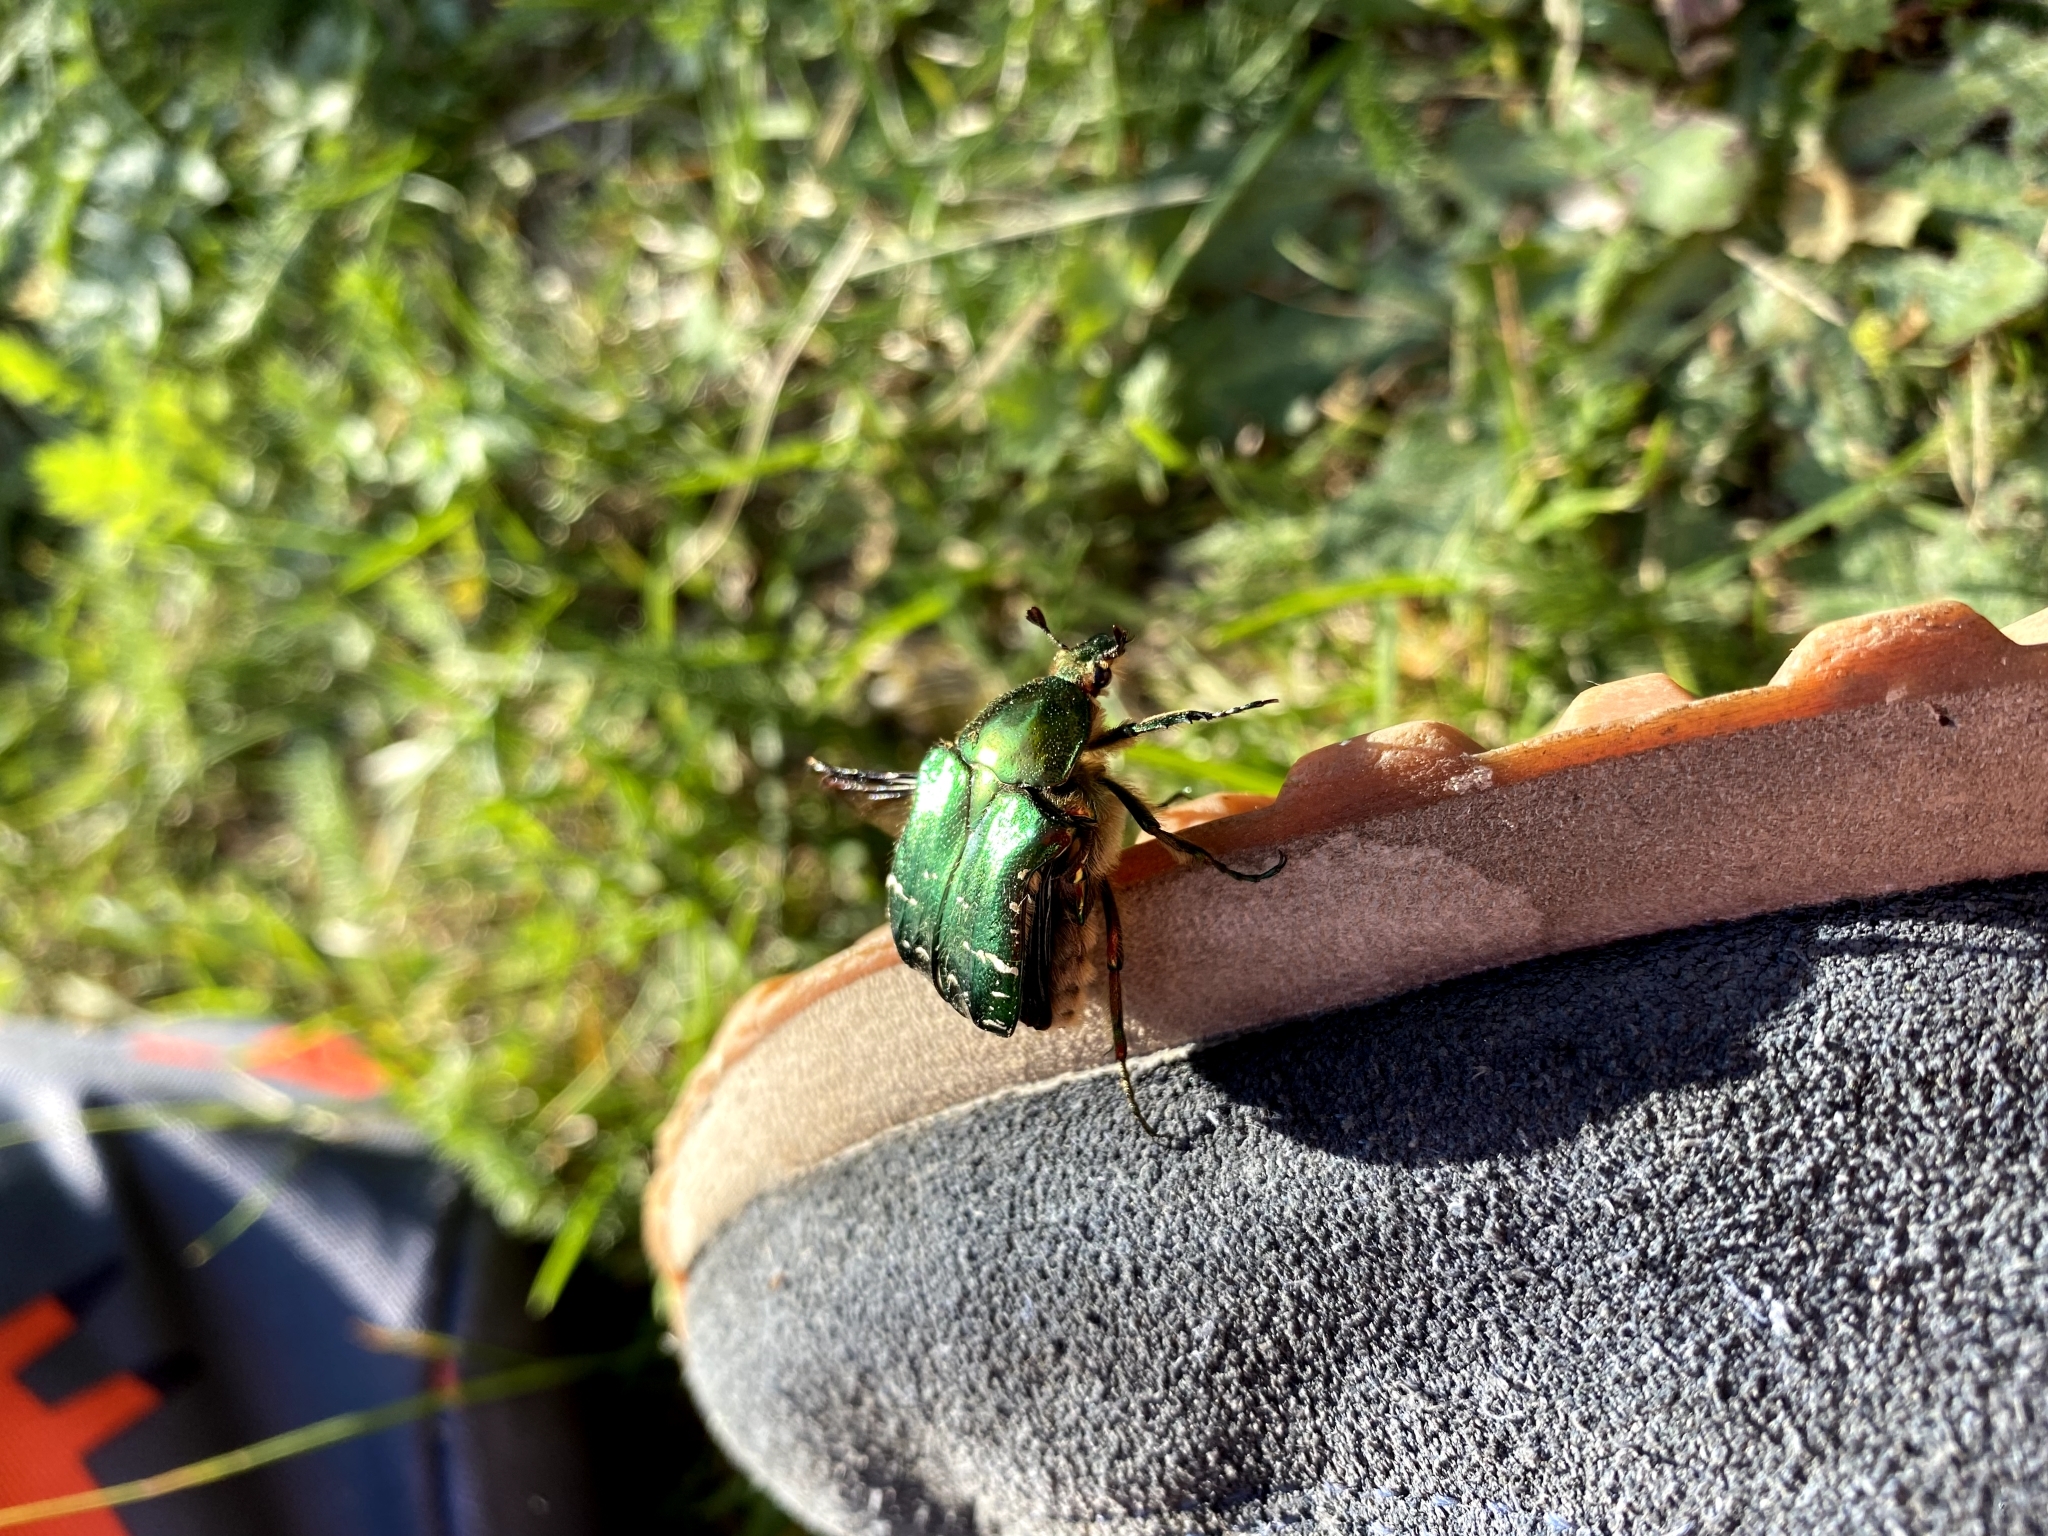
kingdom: Animalia
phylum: Arthropoda
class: Insecta
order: Coleoptera
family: Scarabaeidae
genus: Cetonia
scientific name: Cetonia aurata
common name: Rose chafer
